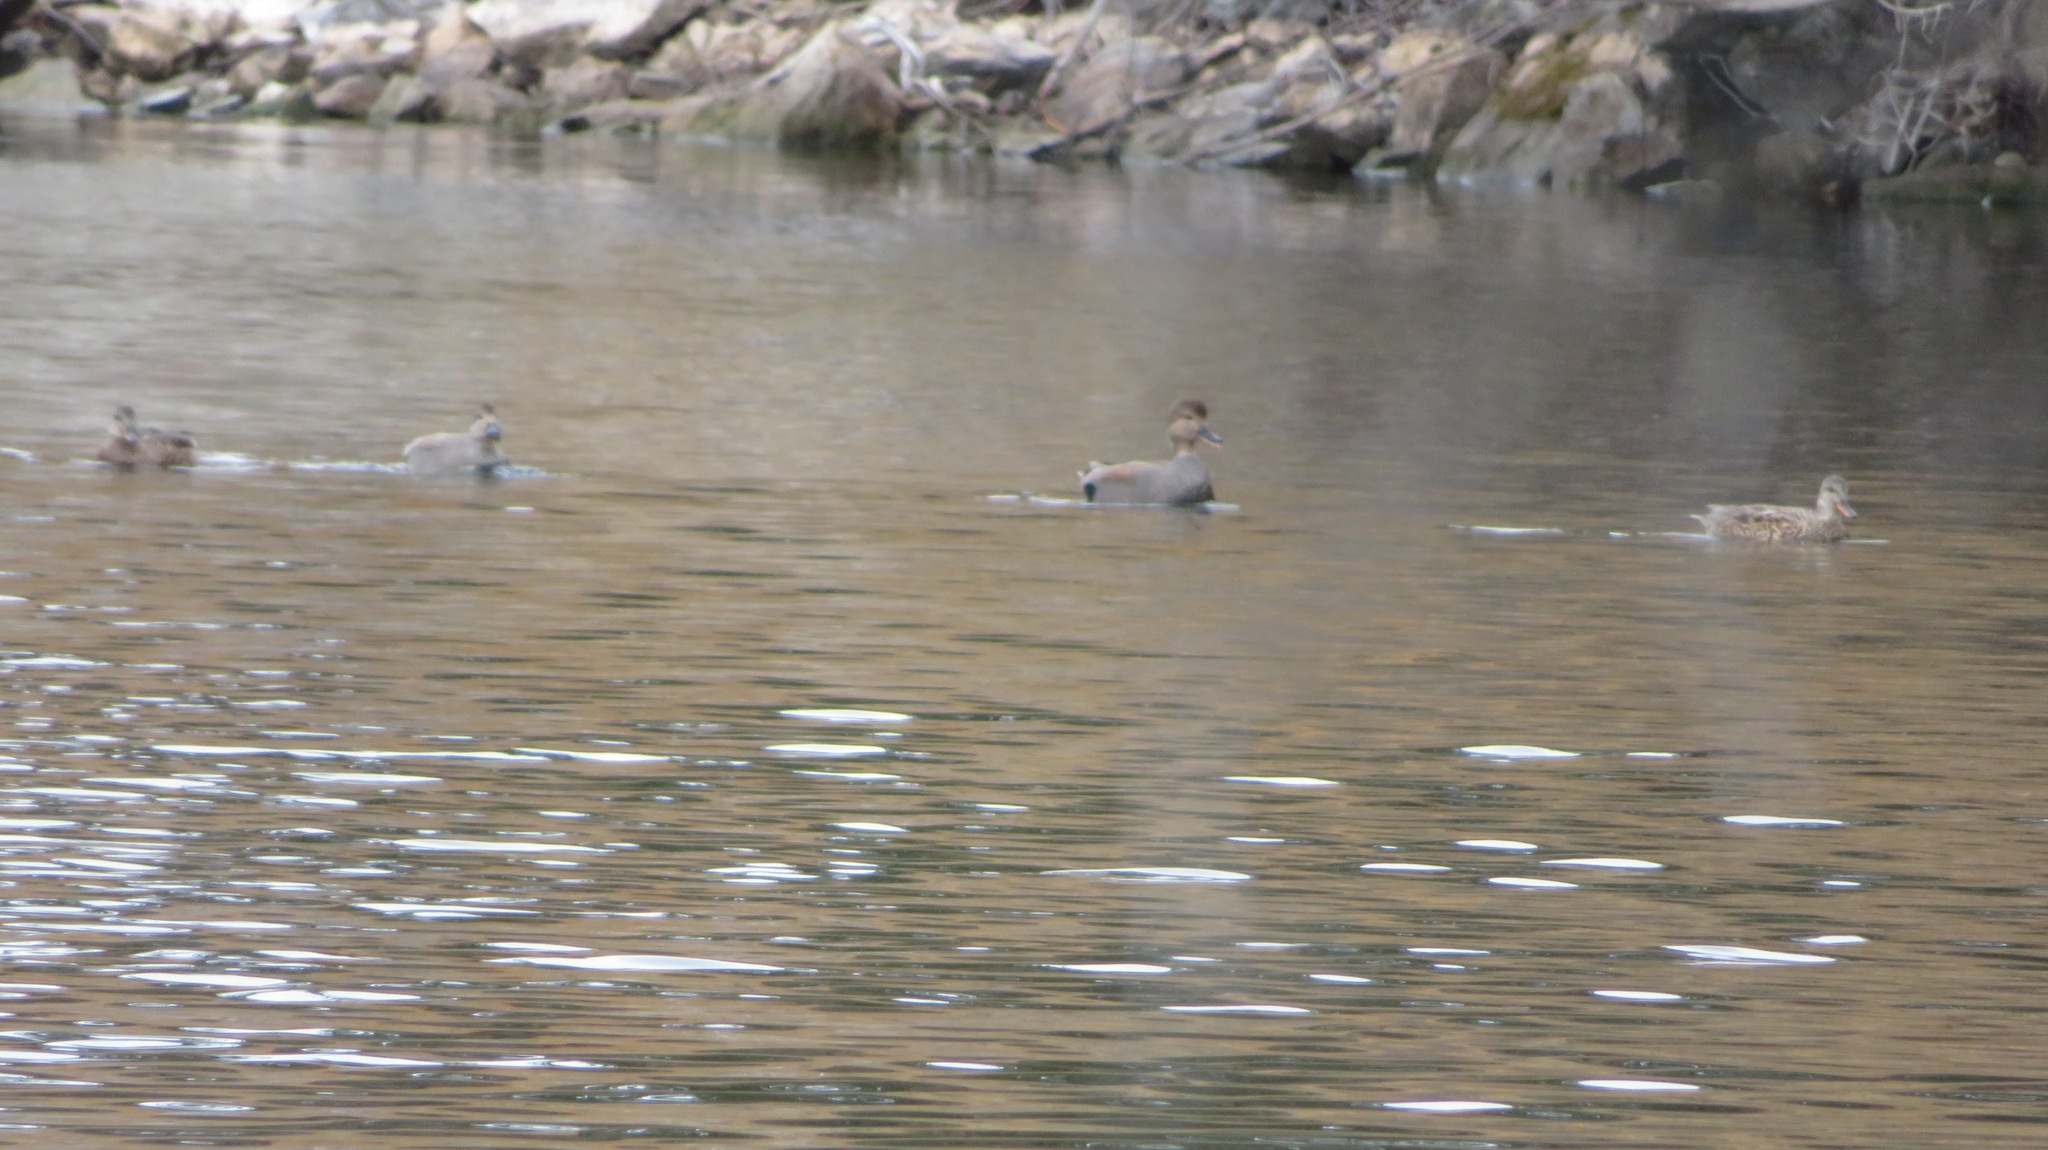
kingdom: Animalia
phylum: Chordata
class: Aves
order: Anseriformes
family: Anatidae
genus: Mareca
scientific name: Mareca strepera
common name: Gadwall
